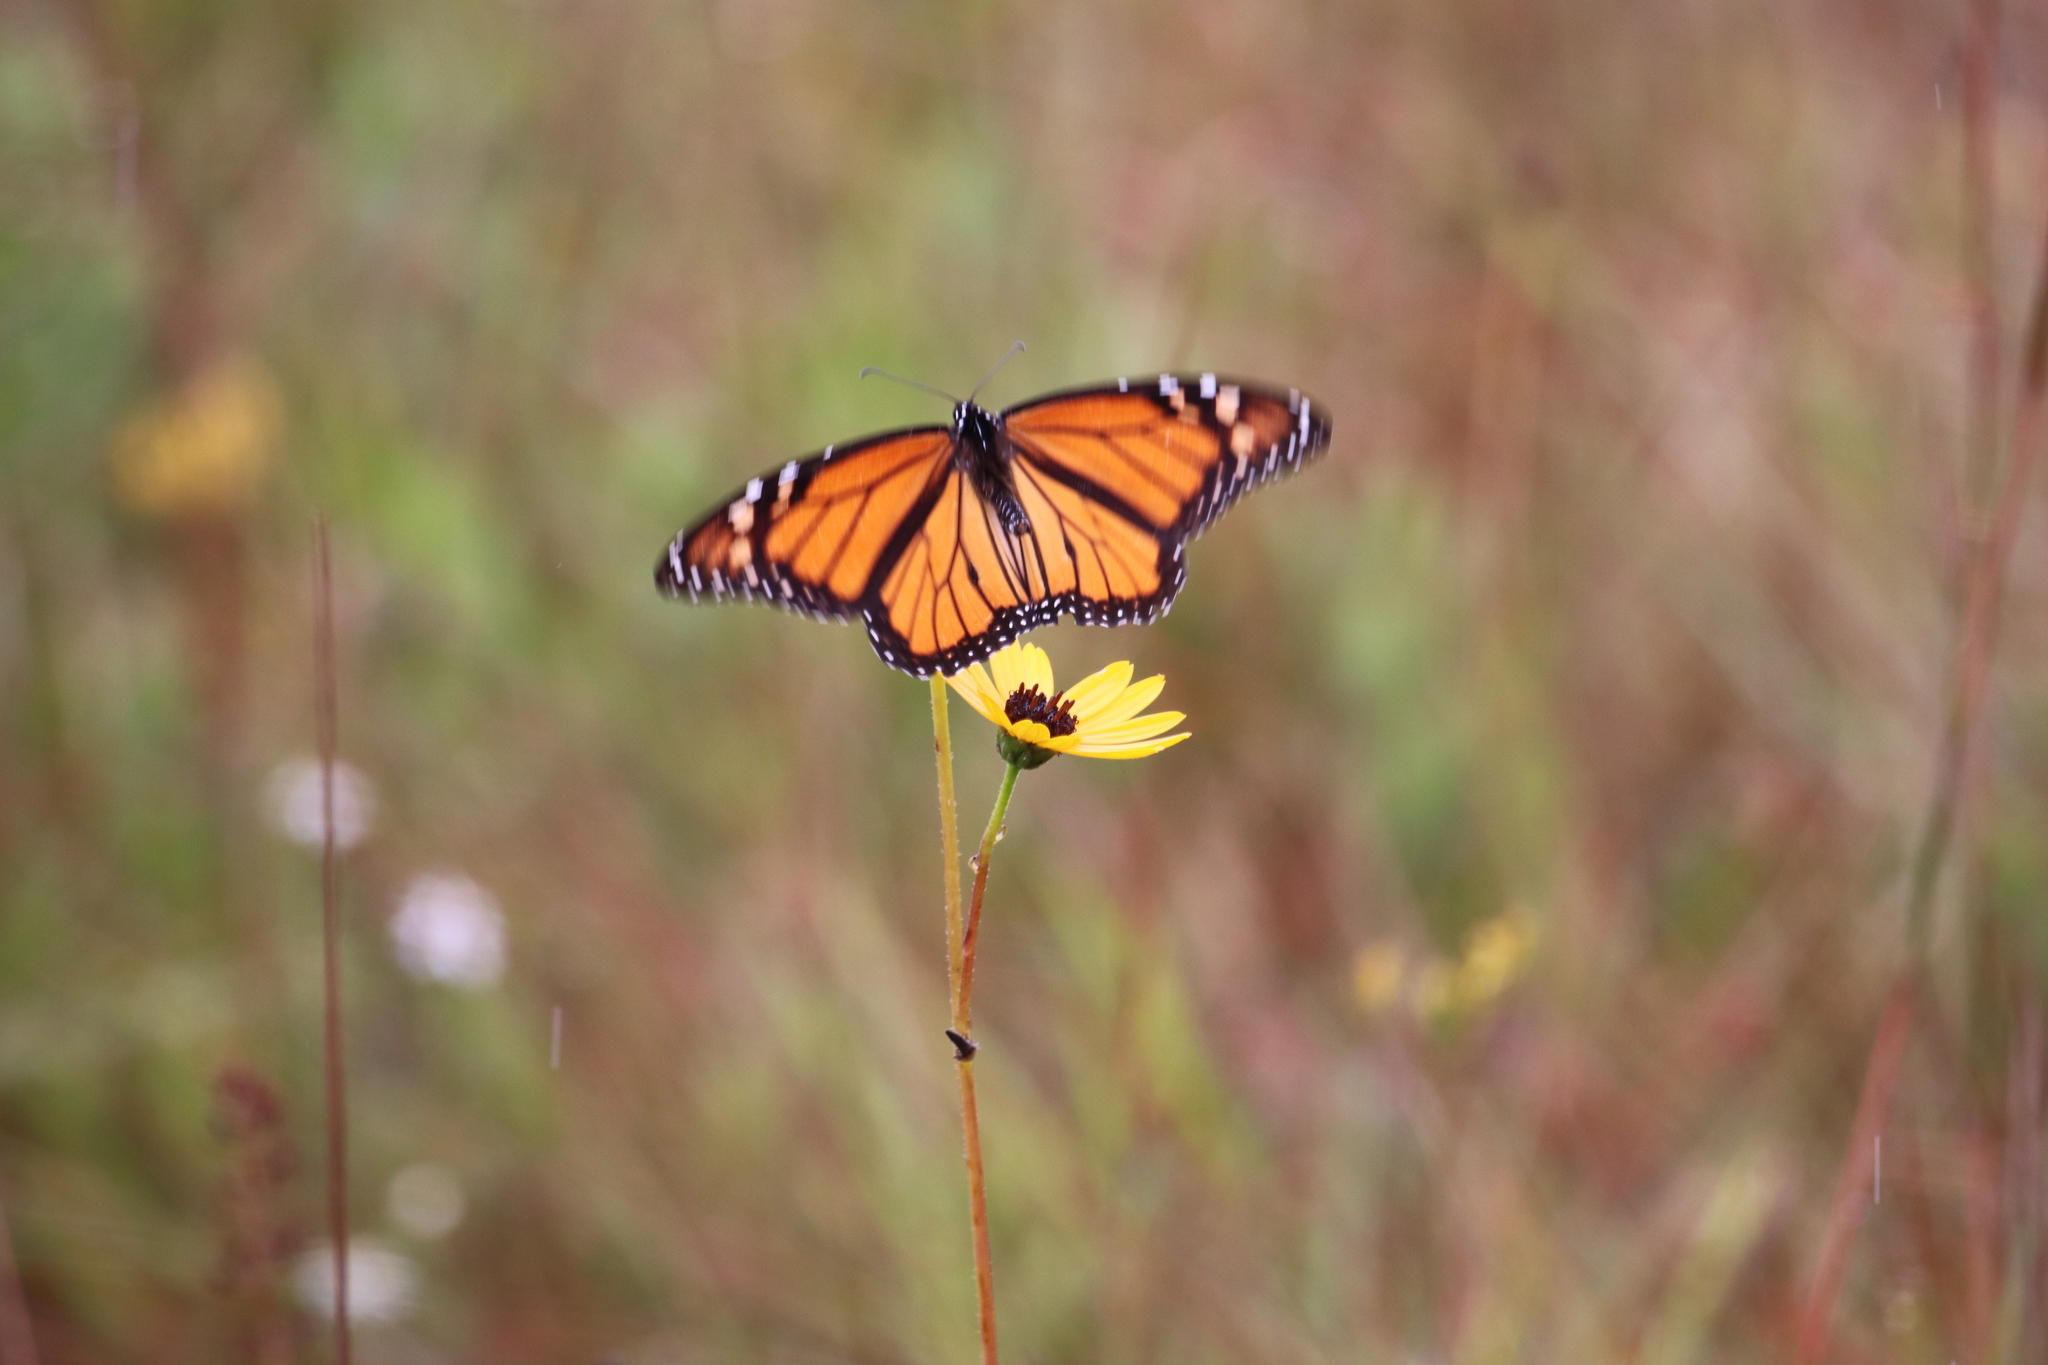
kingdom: Animalia
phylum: Arthropoda
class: Insecta
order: Lepidoptera
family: Nymphalidae
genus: Danaus
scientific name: Danaus plexippus
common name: Monarch
